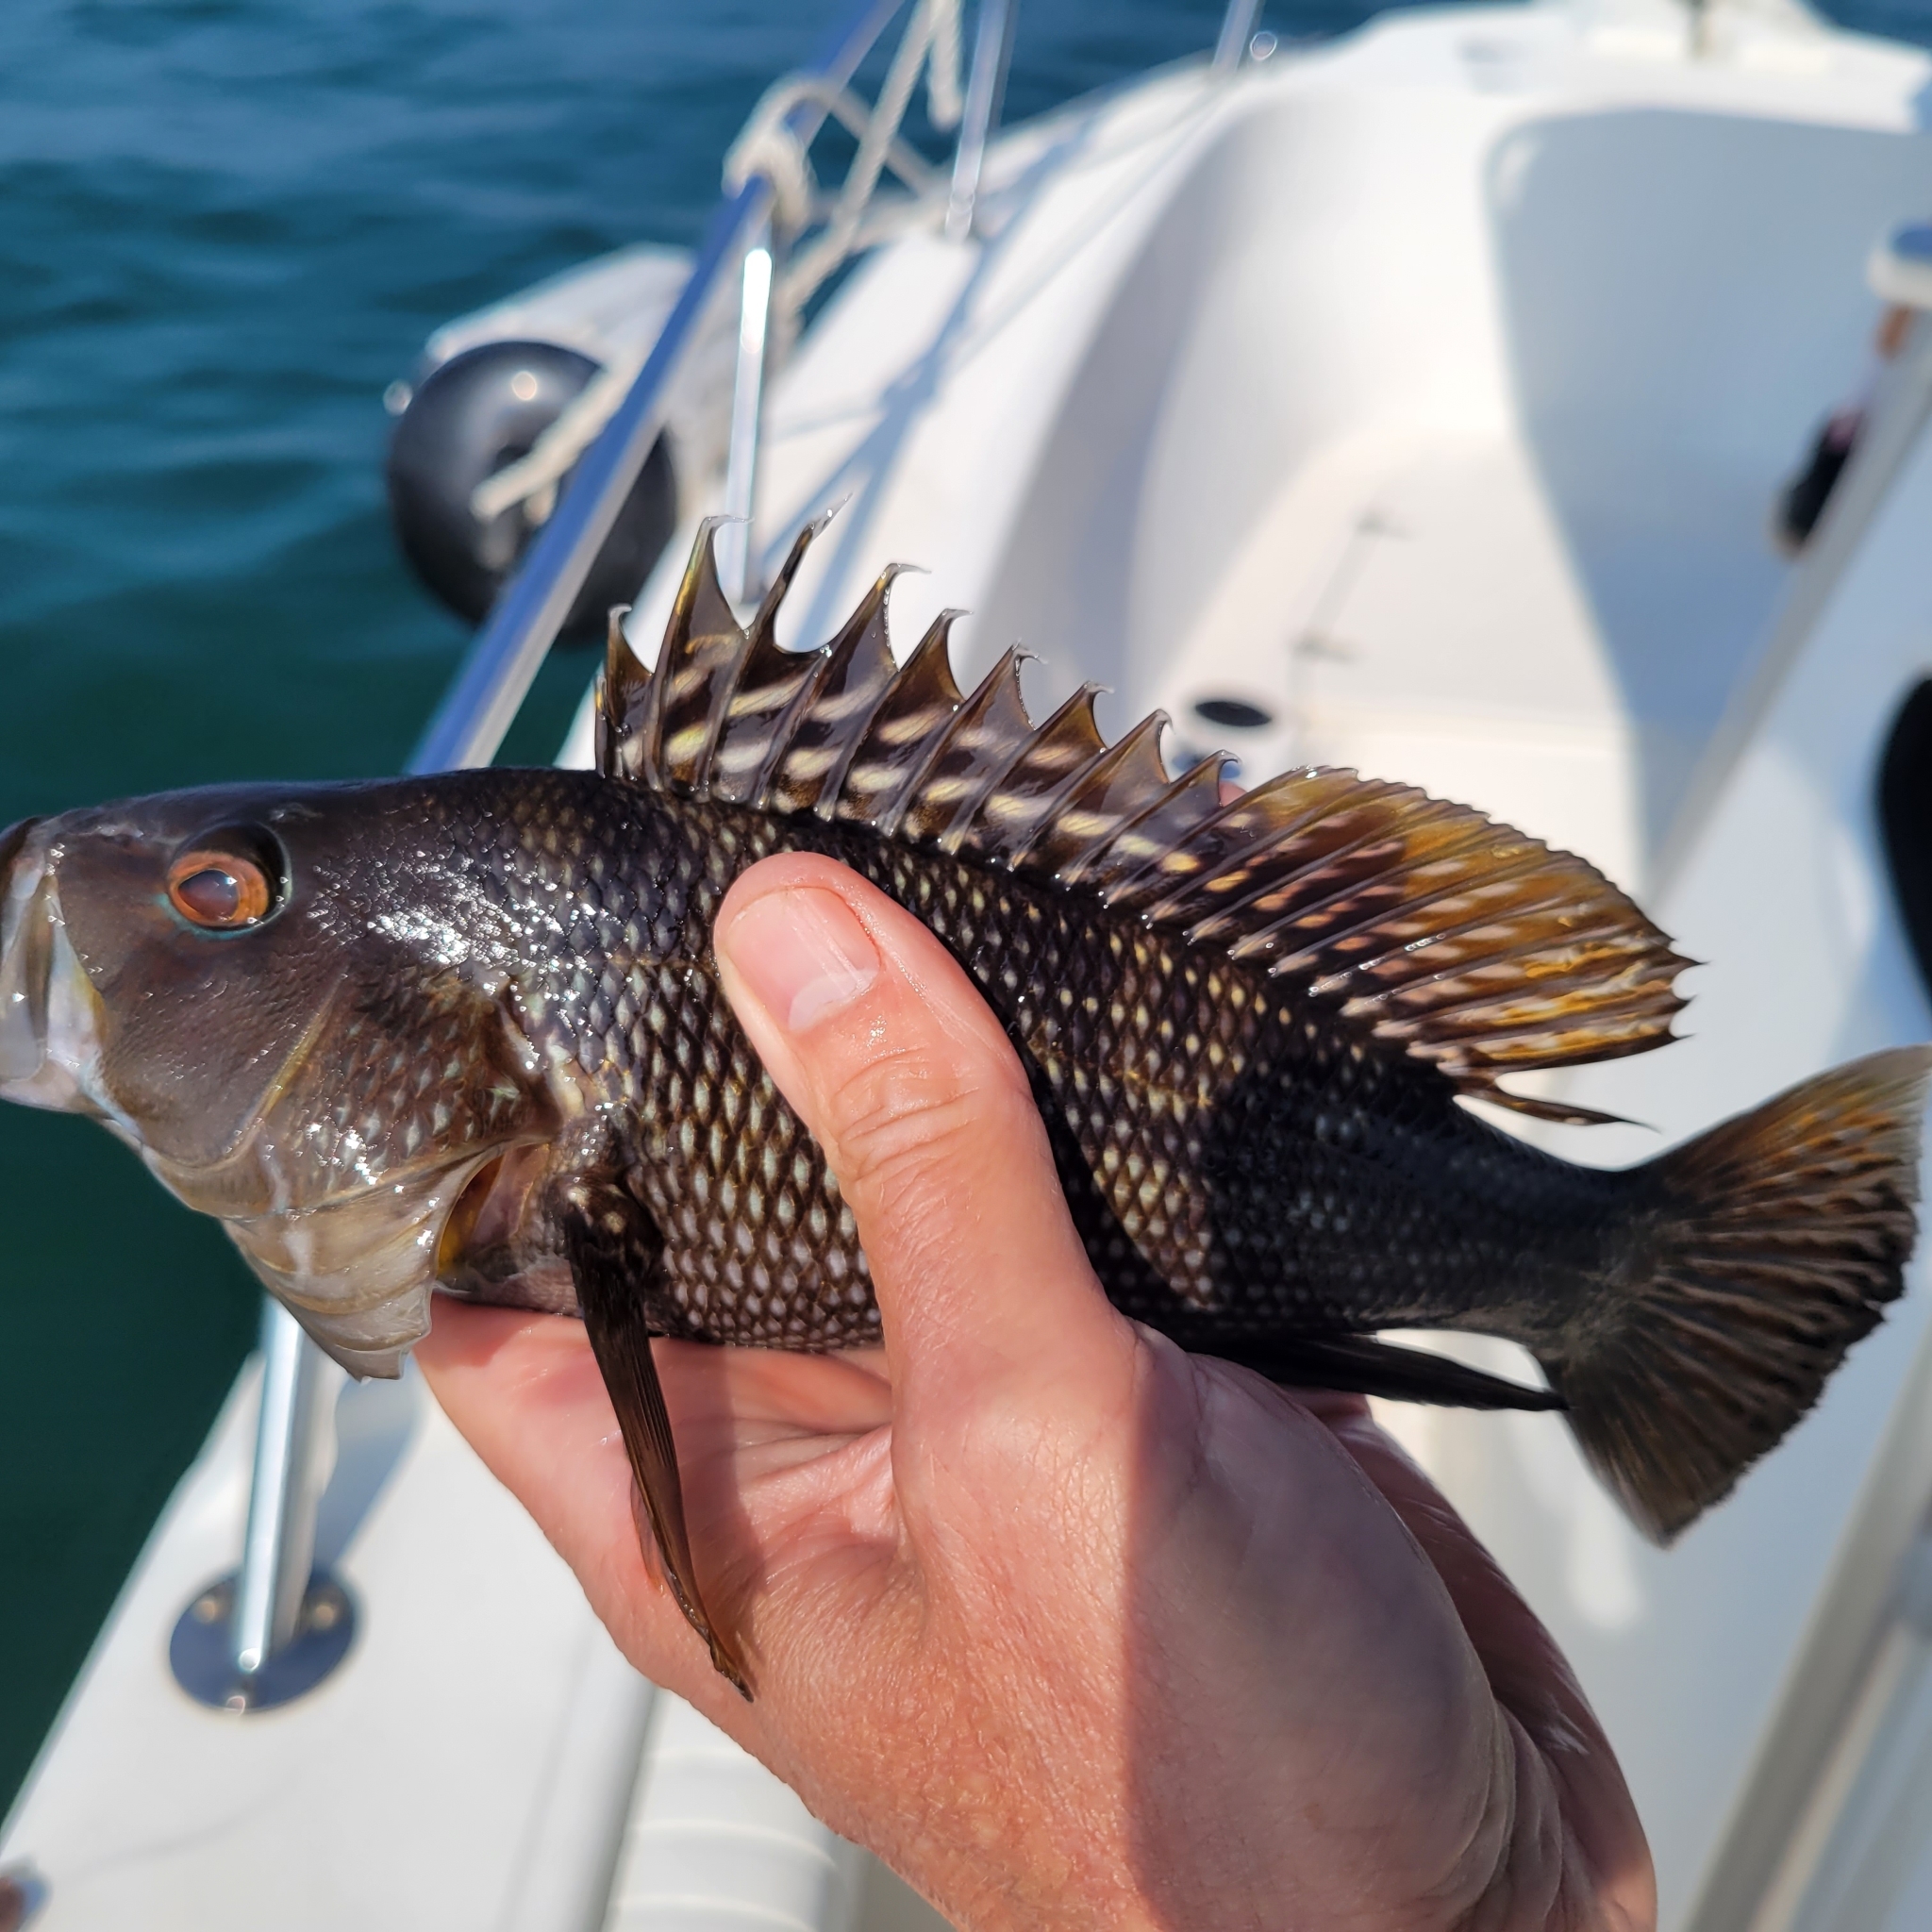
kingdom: Animalia
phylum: Chordata
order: Perciformes
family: Serranidae
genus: Centropristis
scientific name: Centropristis striata
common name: Black sea bass
